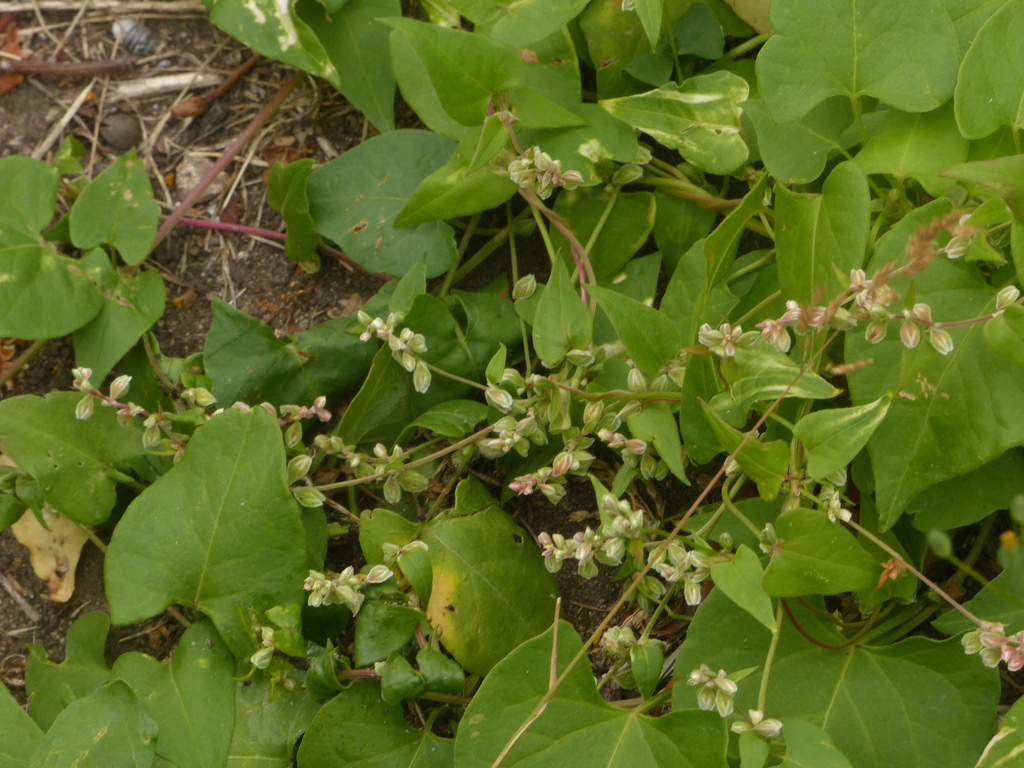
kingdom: Plantae
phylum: Tracheophyta
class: Magnoliopsida
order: Caryophyllales
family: Polygonaceae
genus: Fallopia
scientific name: Fallopia convolvulus
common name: Black bindweed
